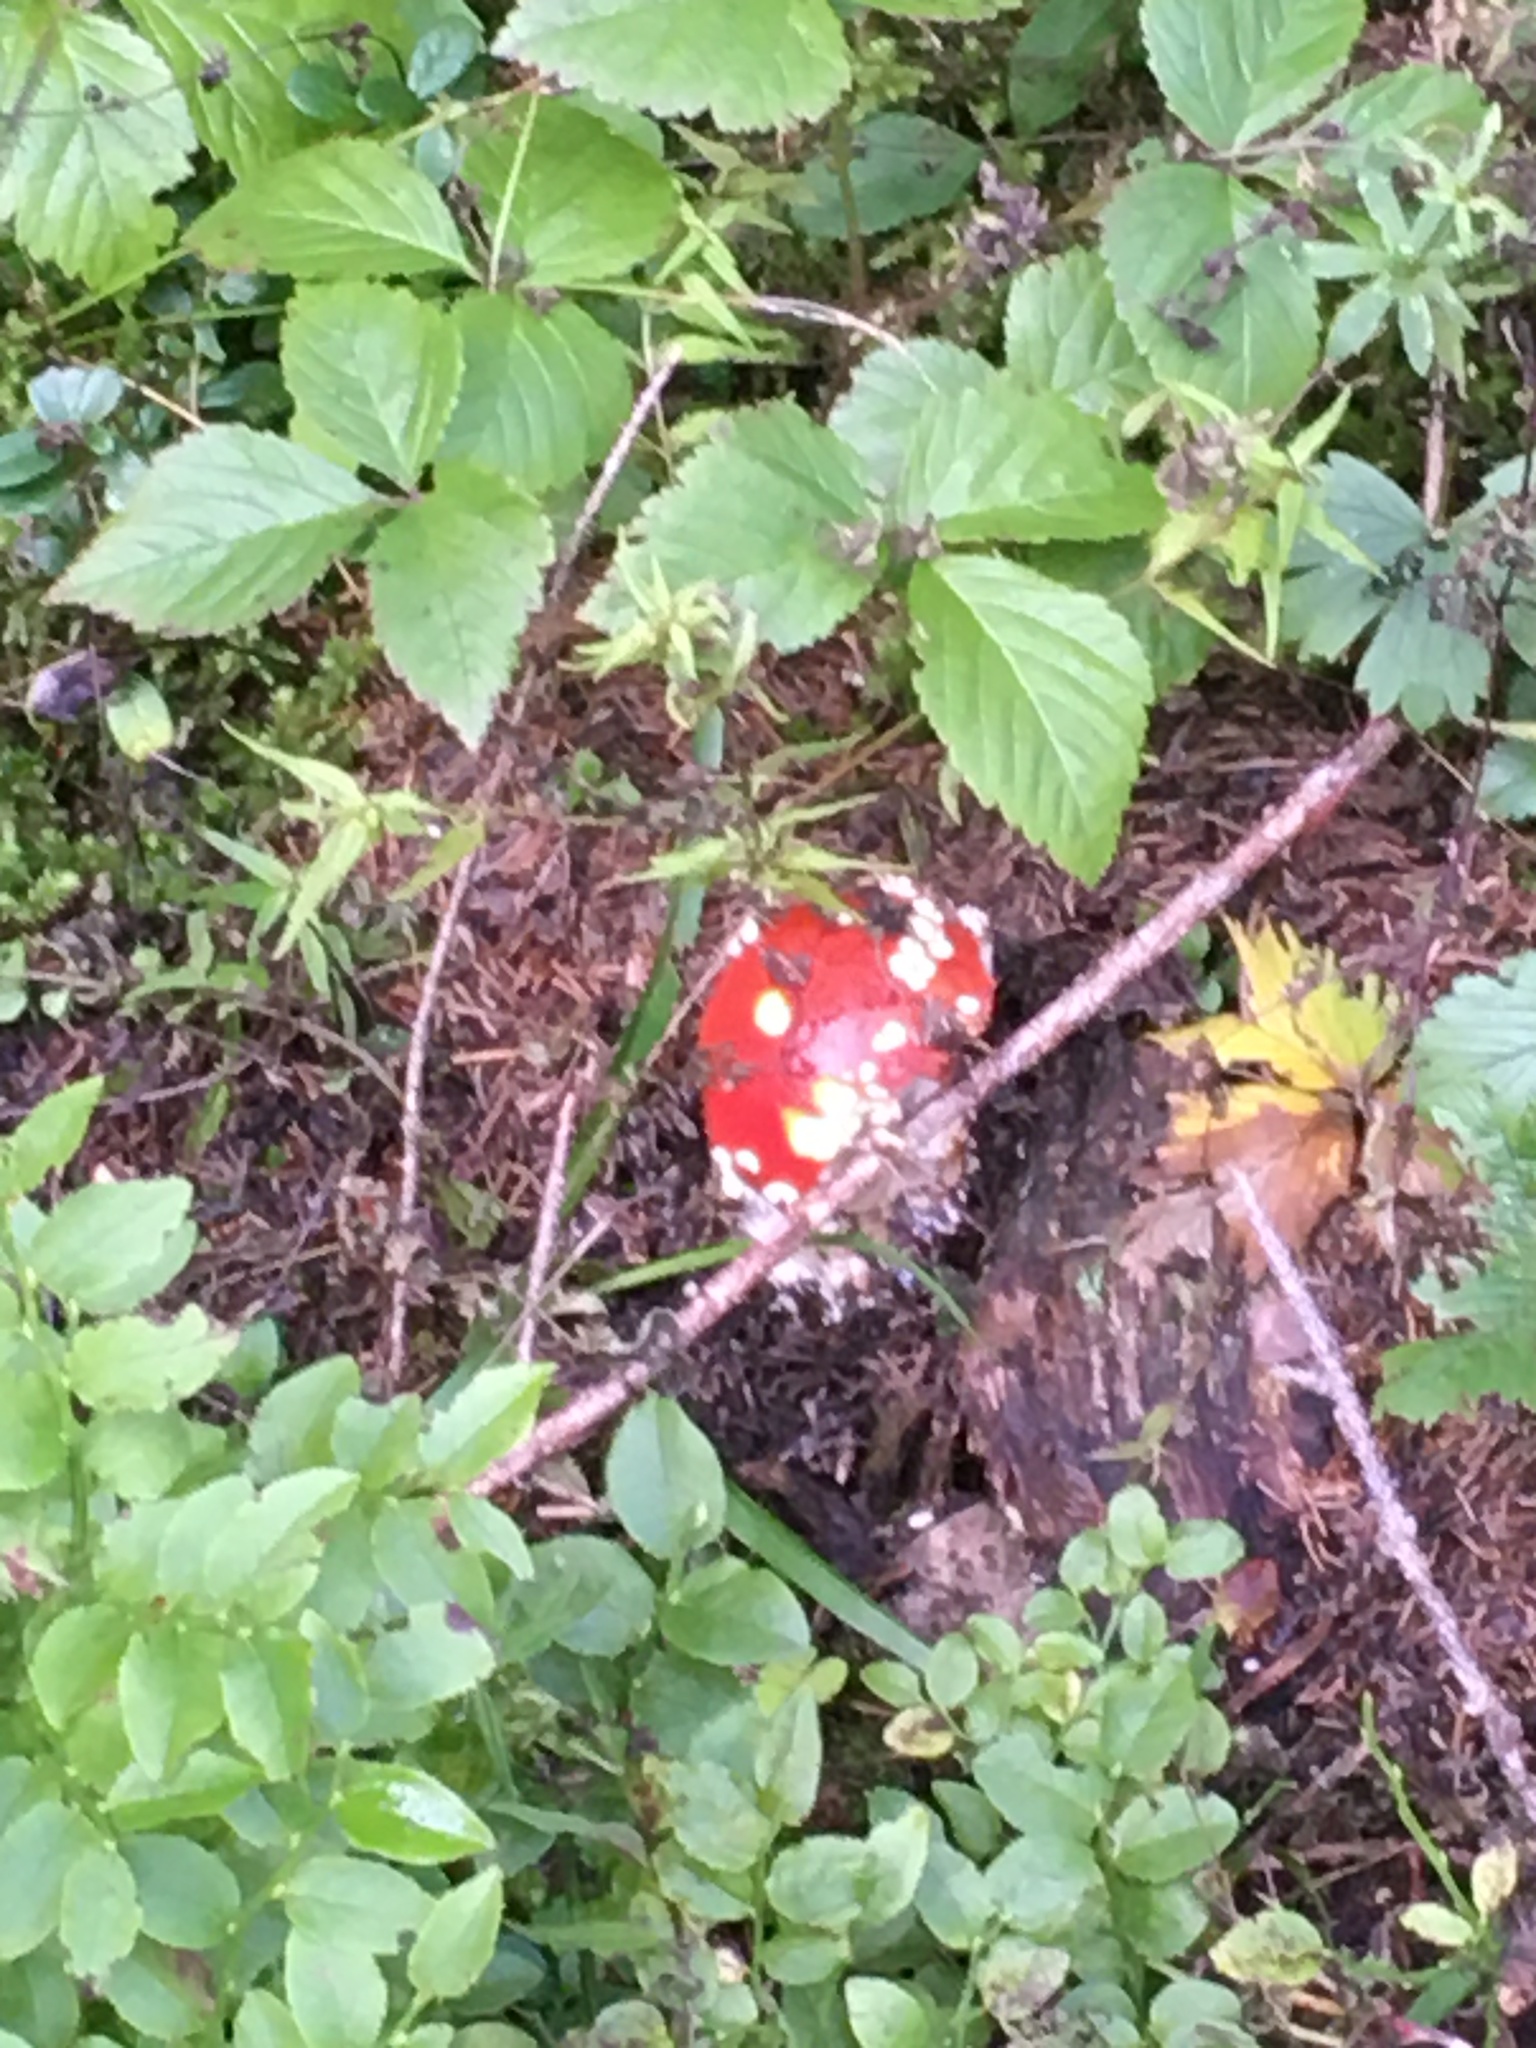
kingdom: Fungi
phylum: Basidiomycota
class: Agaricomycetes
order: Agaricales
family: Amanitaceae
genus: Amanita
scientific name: Amanita muscaria
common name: Fly agaric
